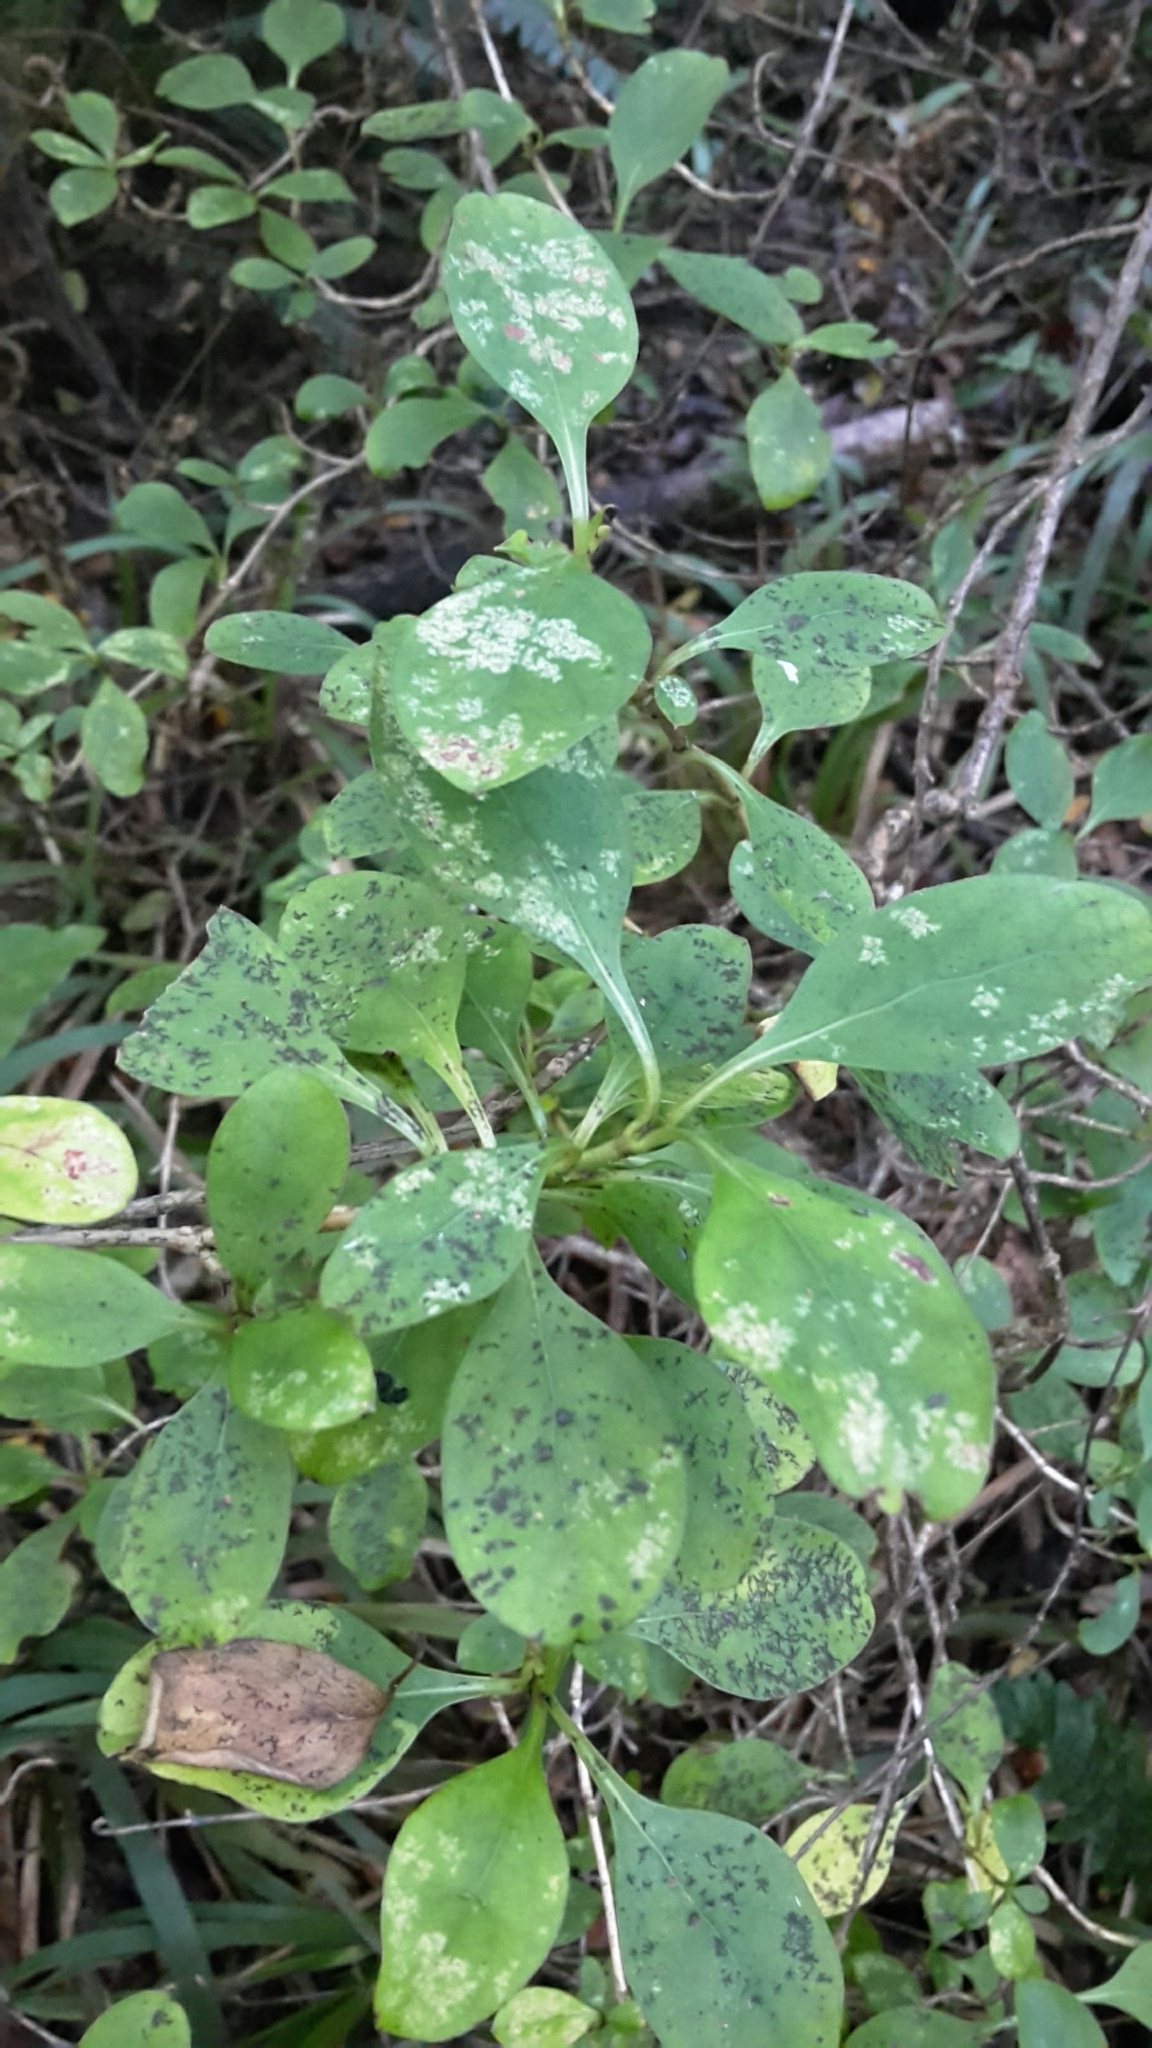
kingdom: Plantae
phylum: Tracheophyta
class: Magnoliopsida
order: Gentianales
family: Rubiaceae
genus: Coprosma
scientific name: Coprosma foetidissima
